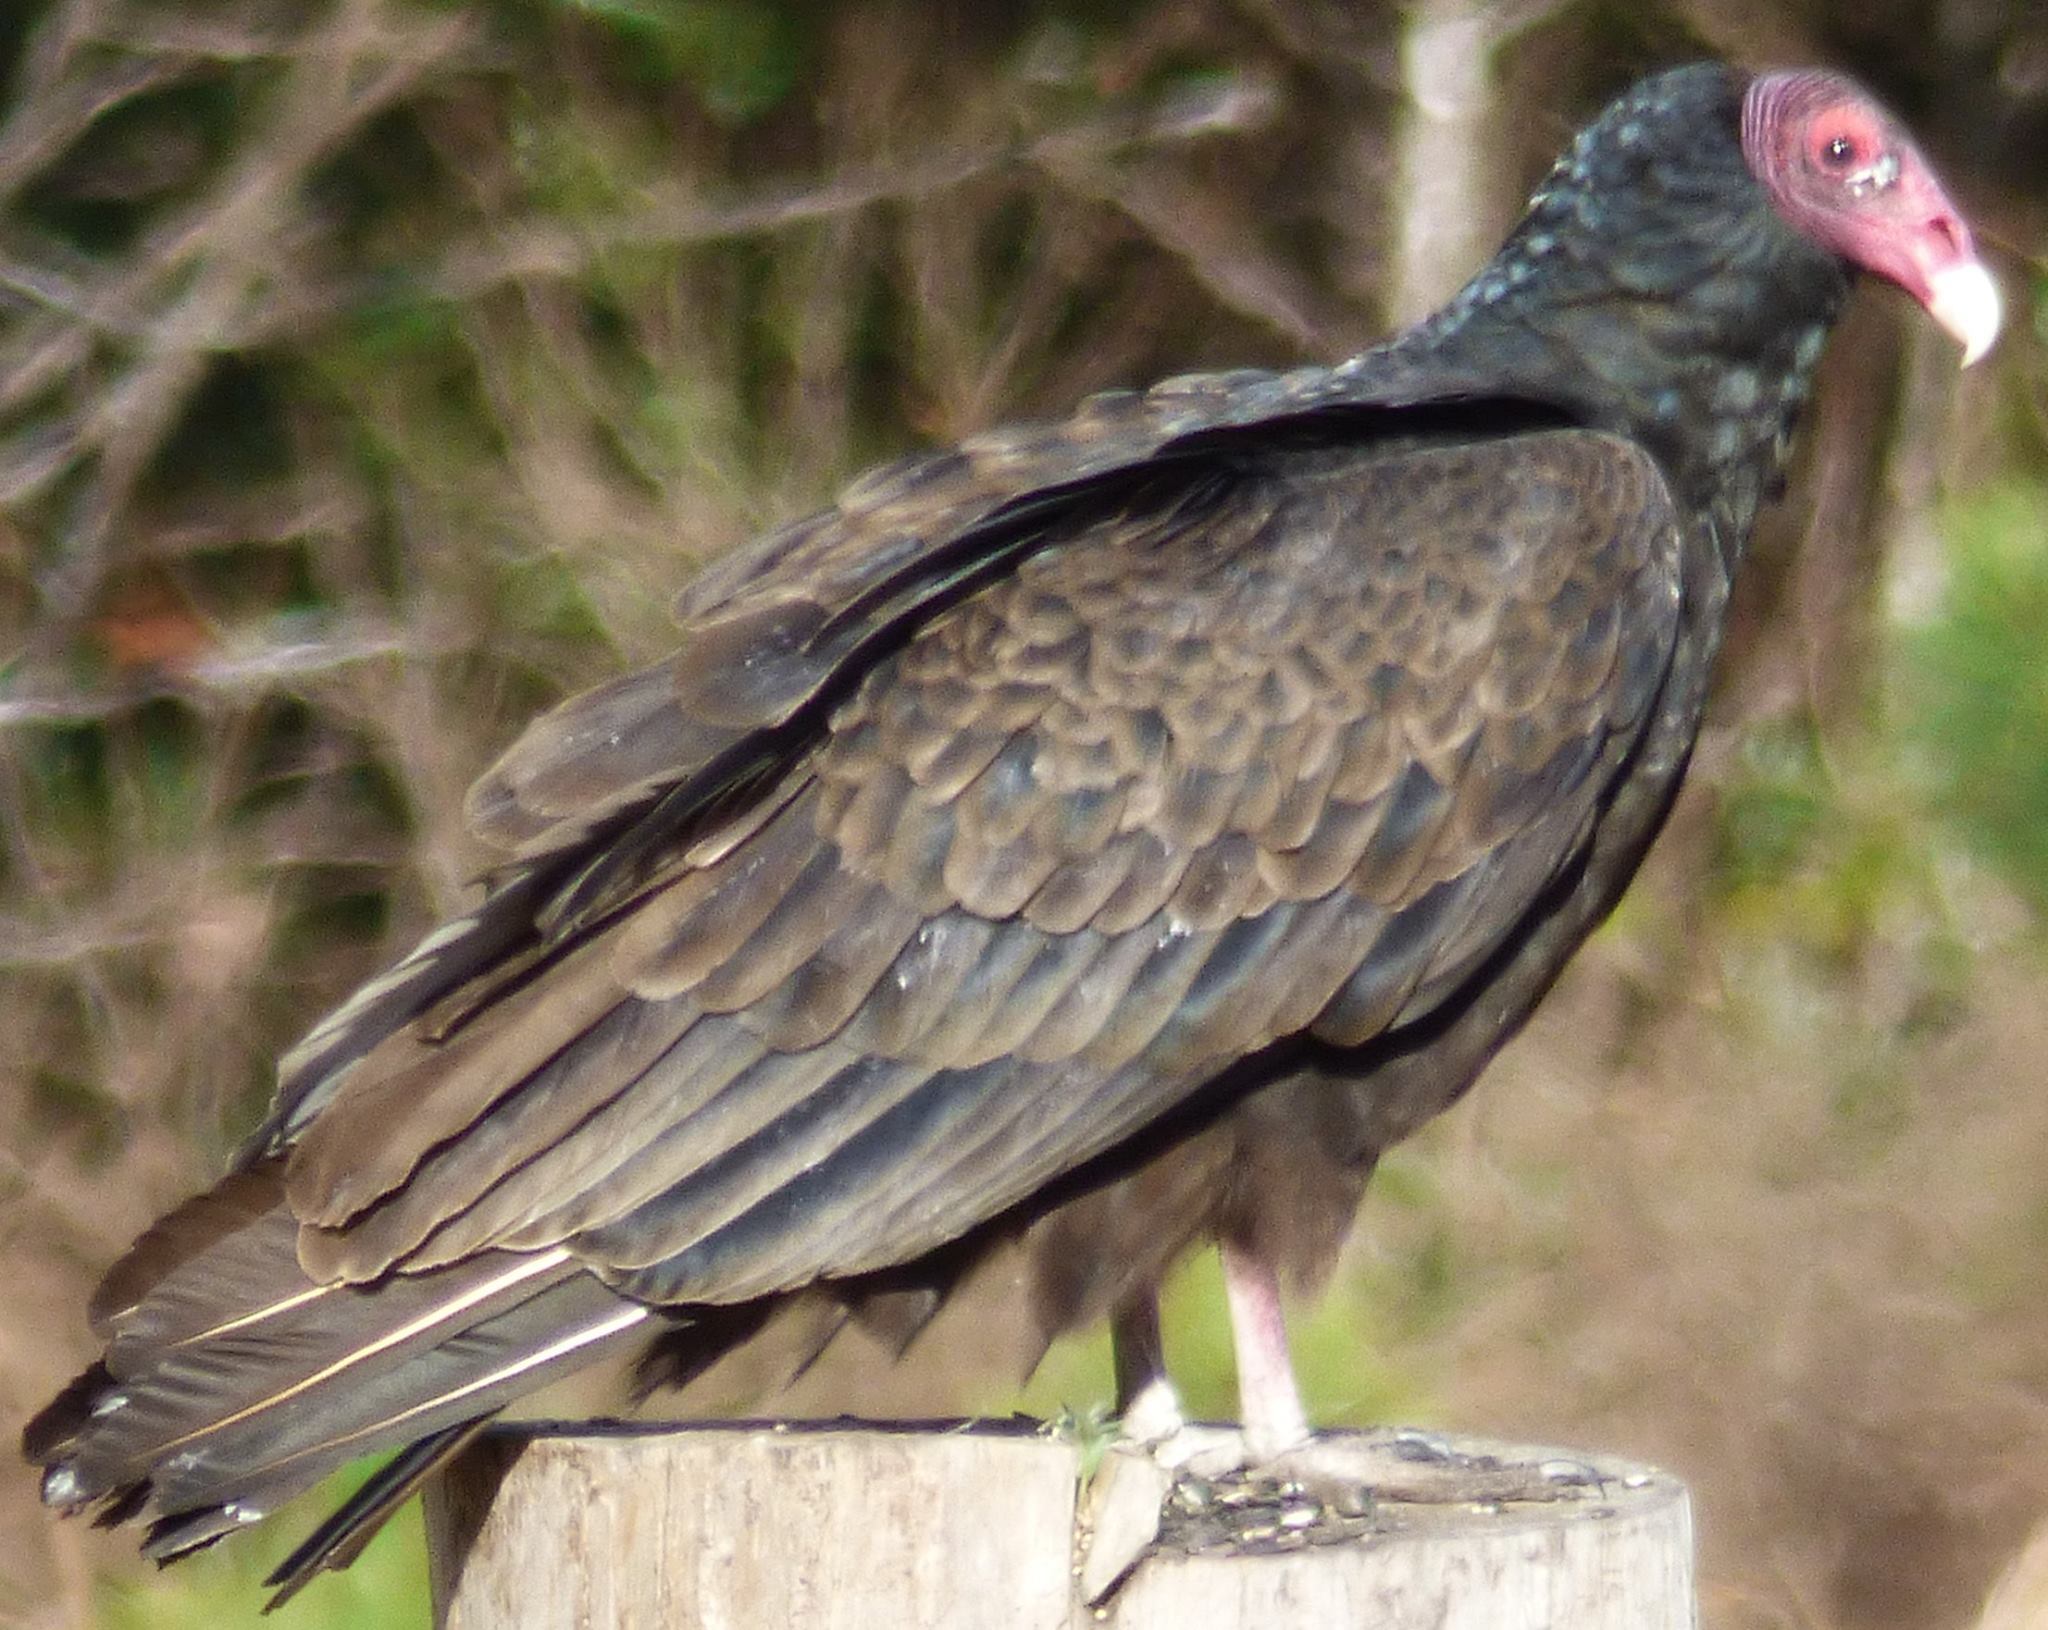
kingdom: Animalia
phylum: Chordata
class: Aves
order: Accipitriformes
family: Cathartidae
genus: Cathartes
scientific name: Cathartes aura
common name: Turkey vulture
